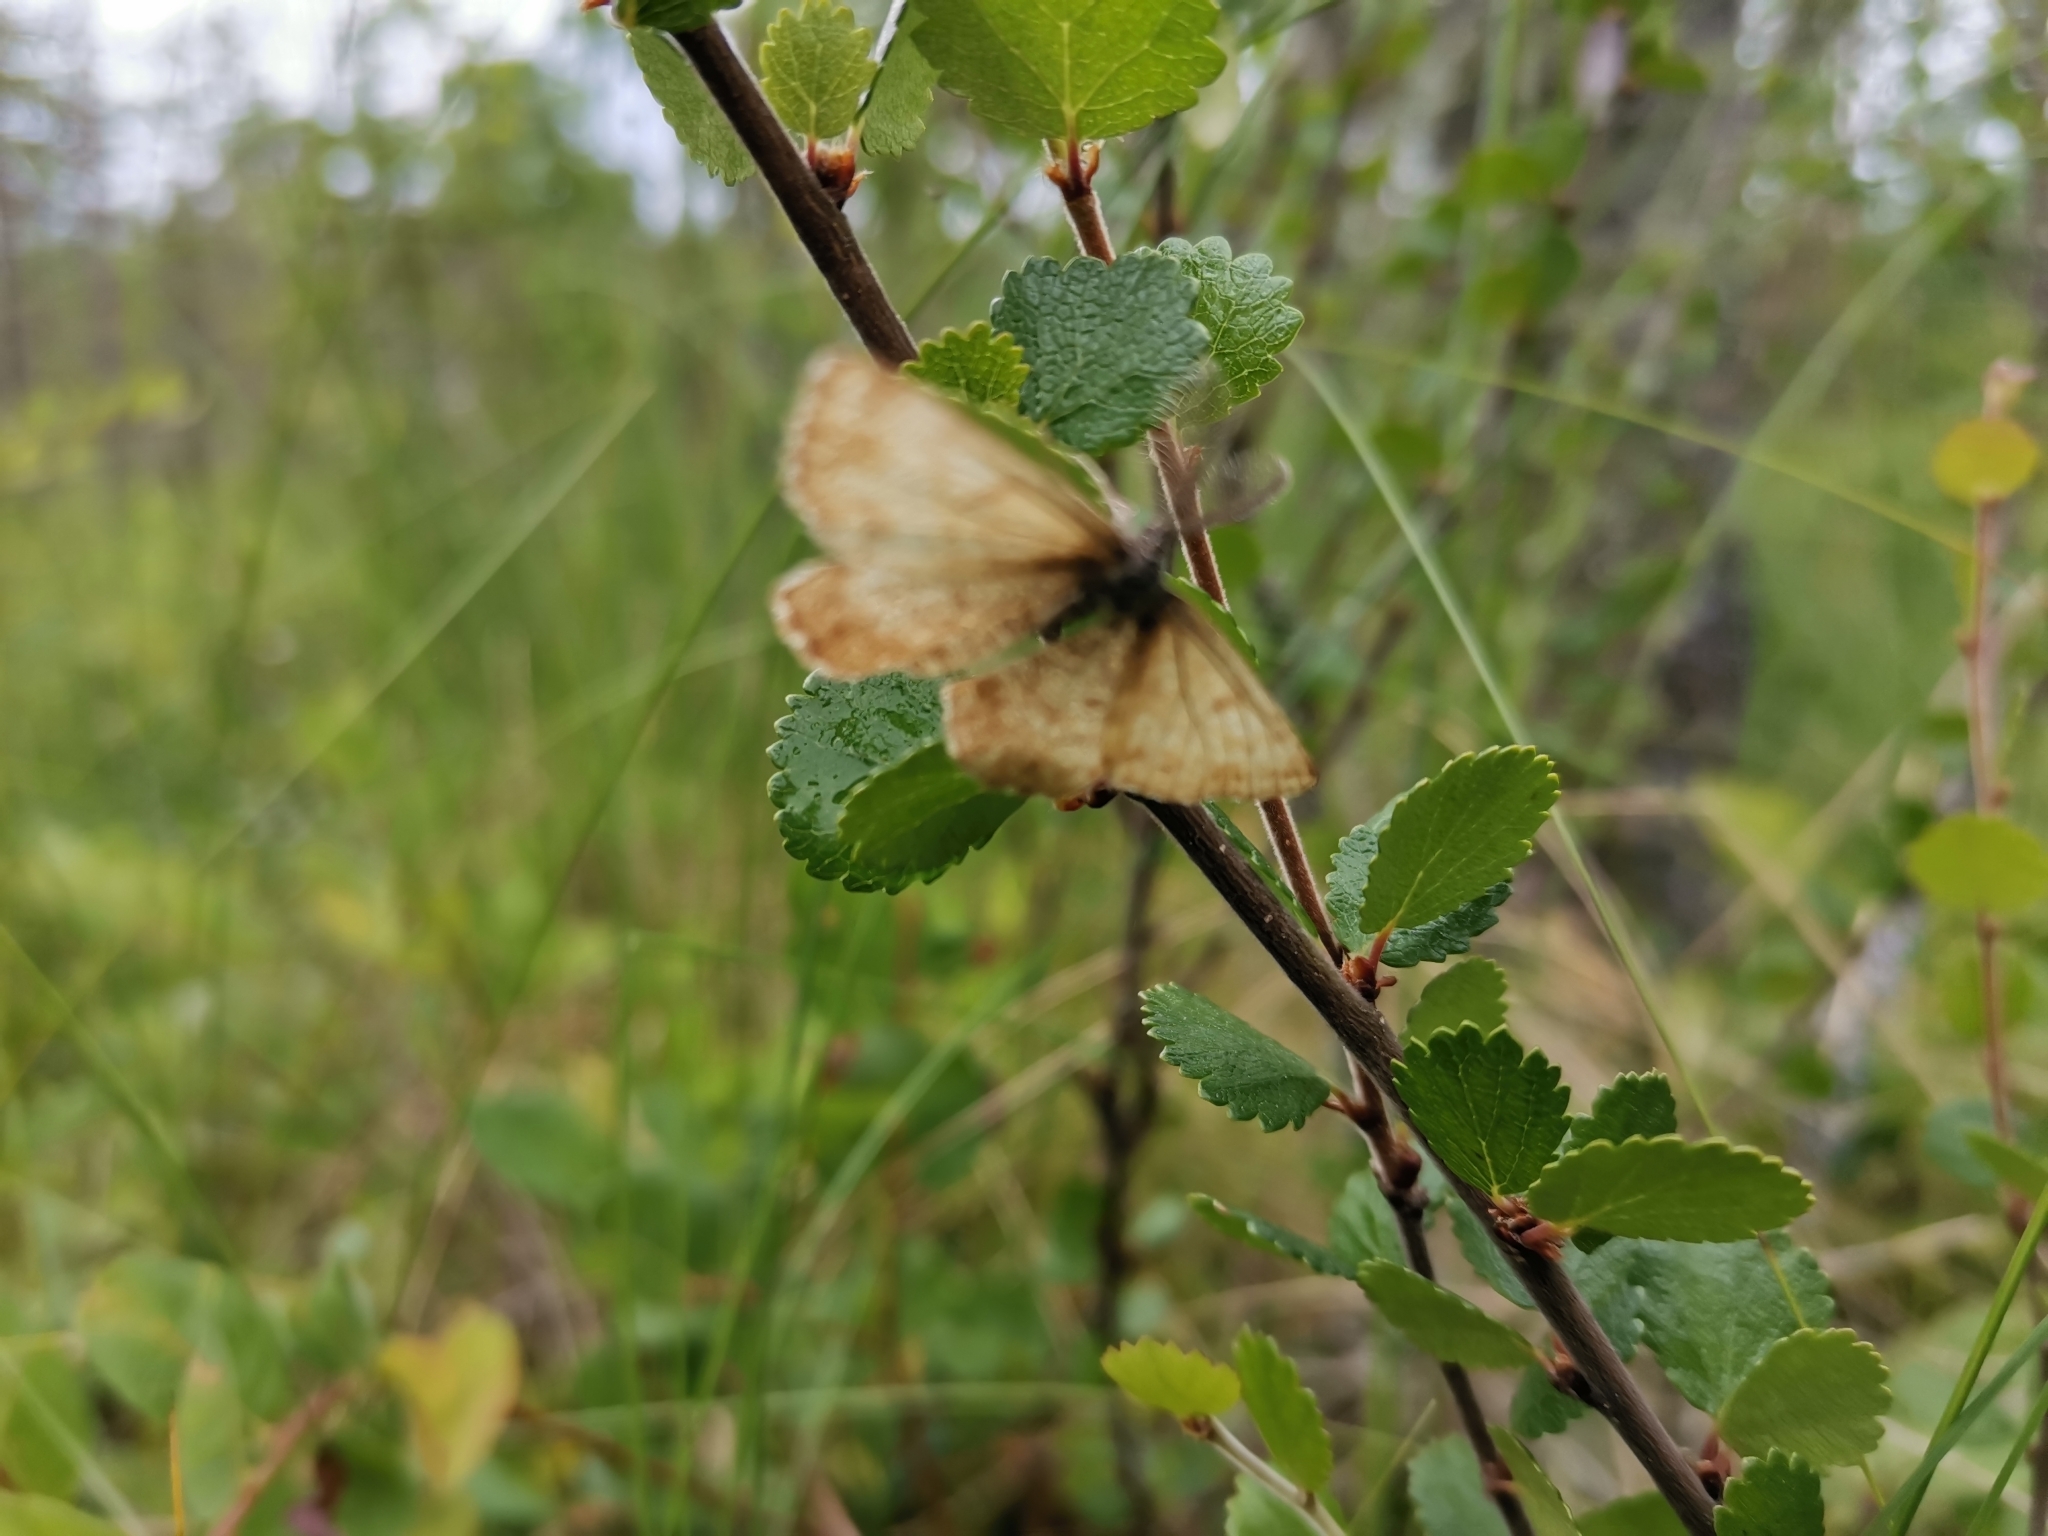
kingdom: Animalia
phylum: Arthropoda
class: Insecta
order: Lepidoptera
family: Geometridae
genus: Ematurga
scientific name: Ematurga atomaria
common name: Common heath
